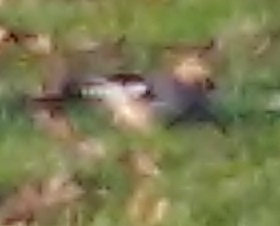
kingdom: Animalia
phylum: Chordata
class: Aves
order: Passeriformes
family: Corvidae
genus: Garrulus
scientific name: Garrulus glandarius
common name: Eurasian jay
